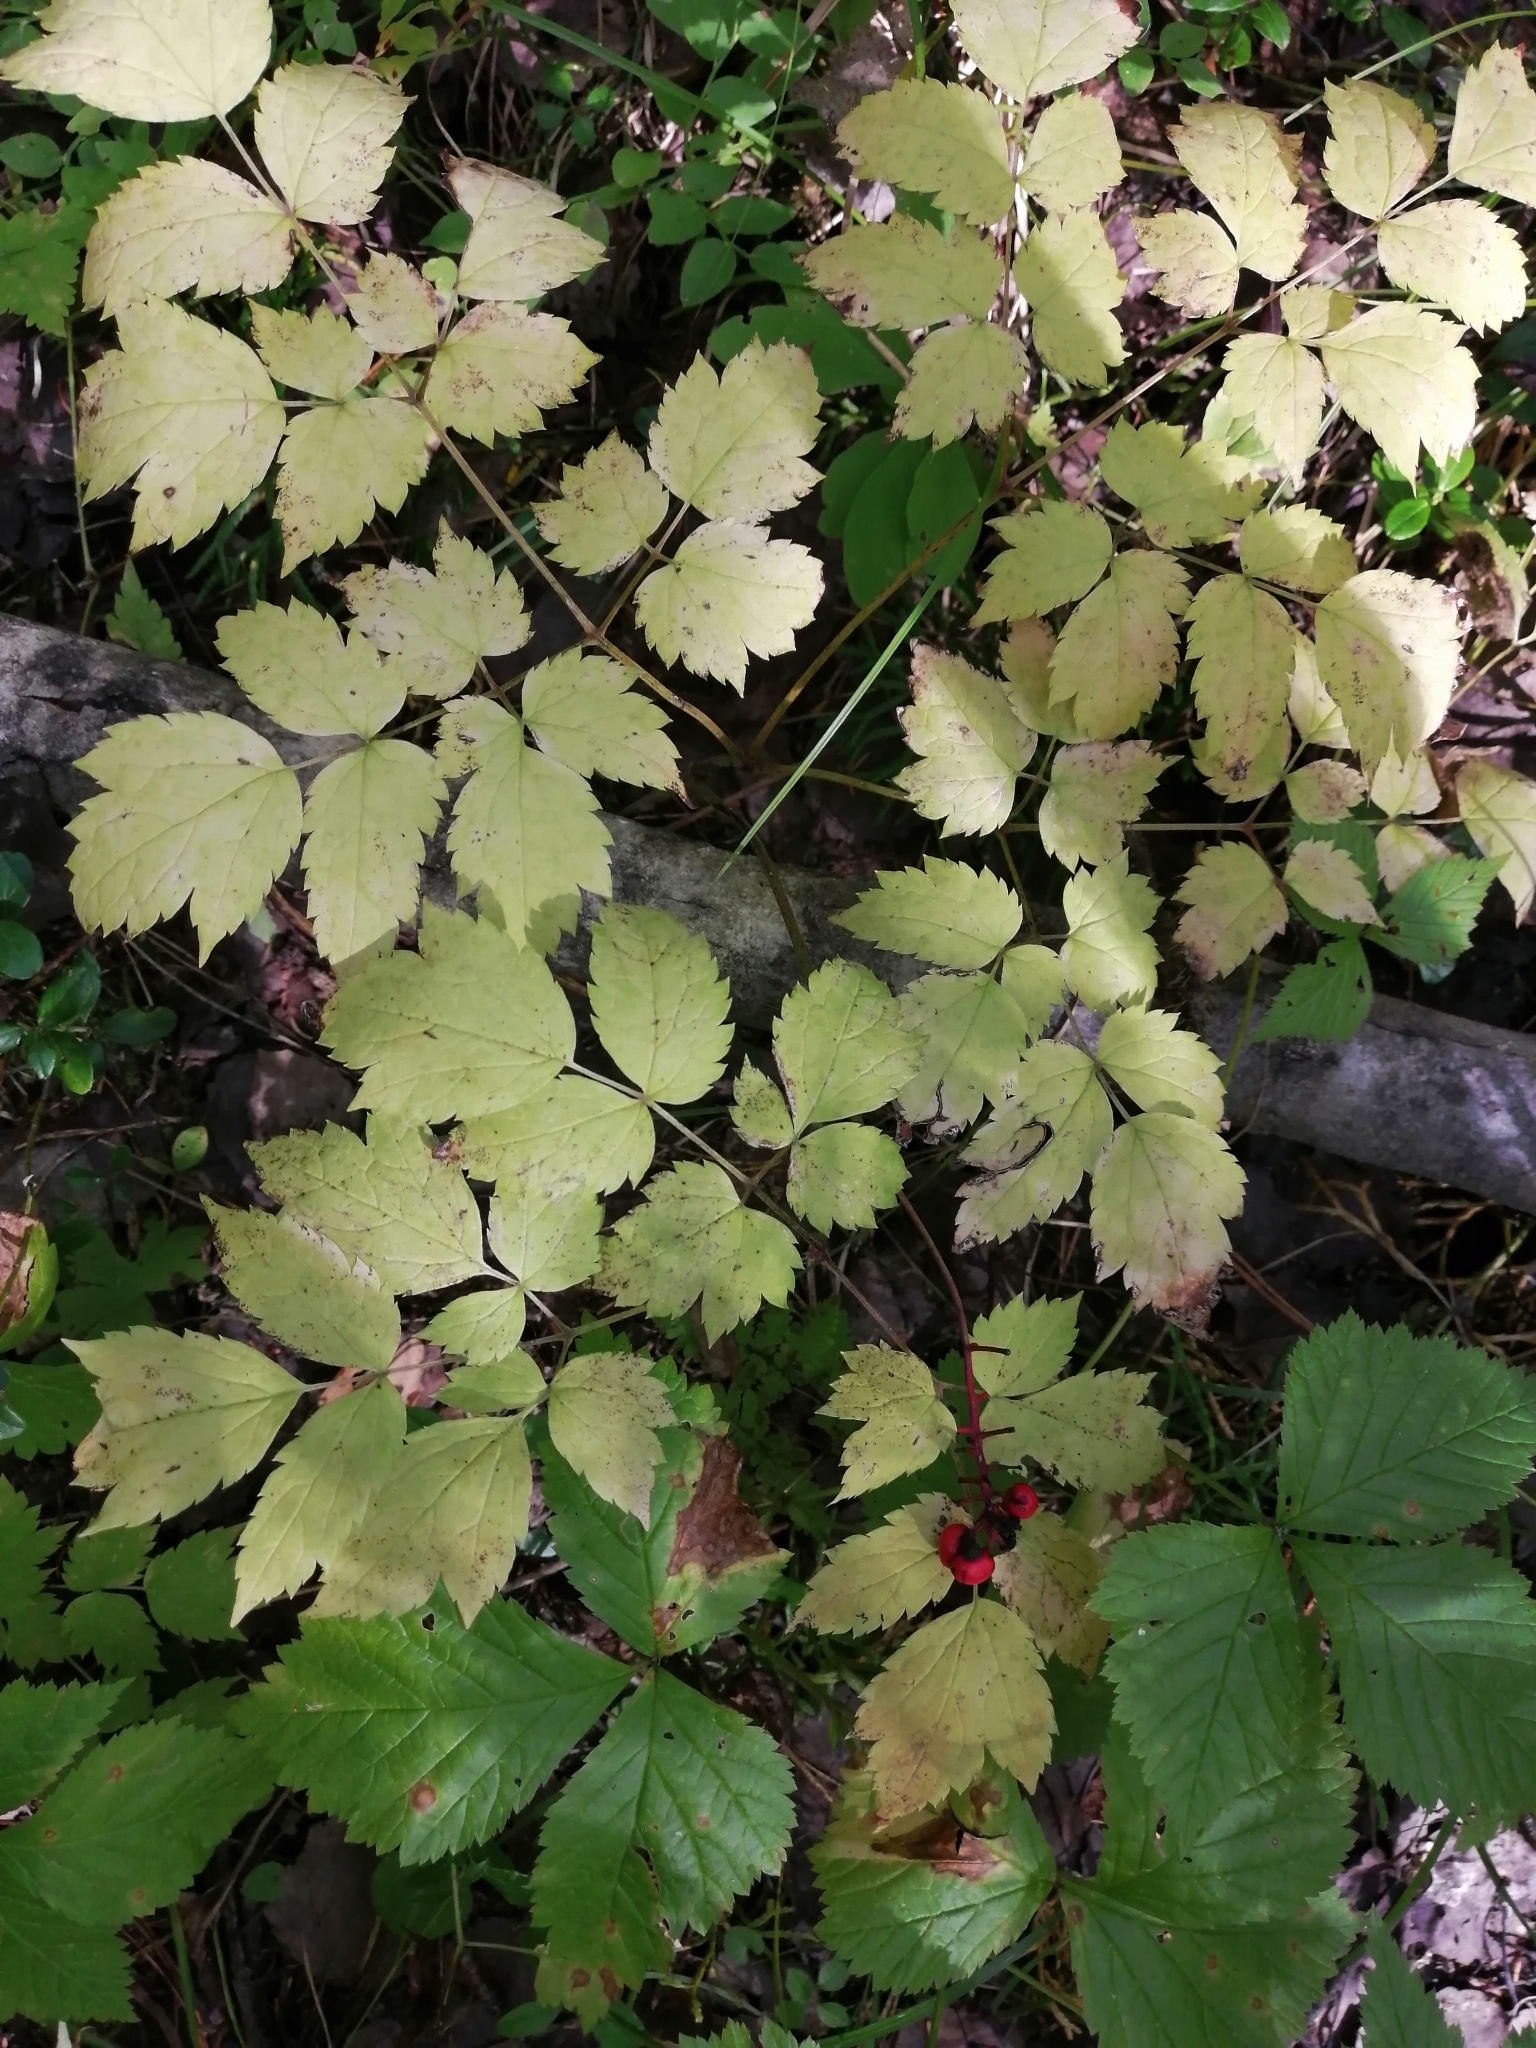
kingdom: Plantae
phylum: Tracheophyta
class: Magnoliopsida
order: Ranunculales
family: Ranunculaceae
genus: Actaea
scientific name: Actaea erythrocarpa
